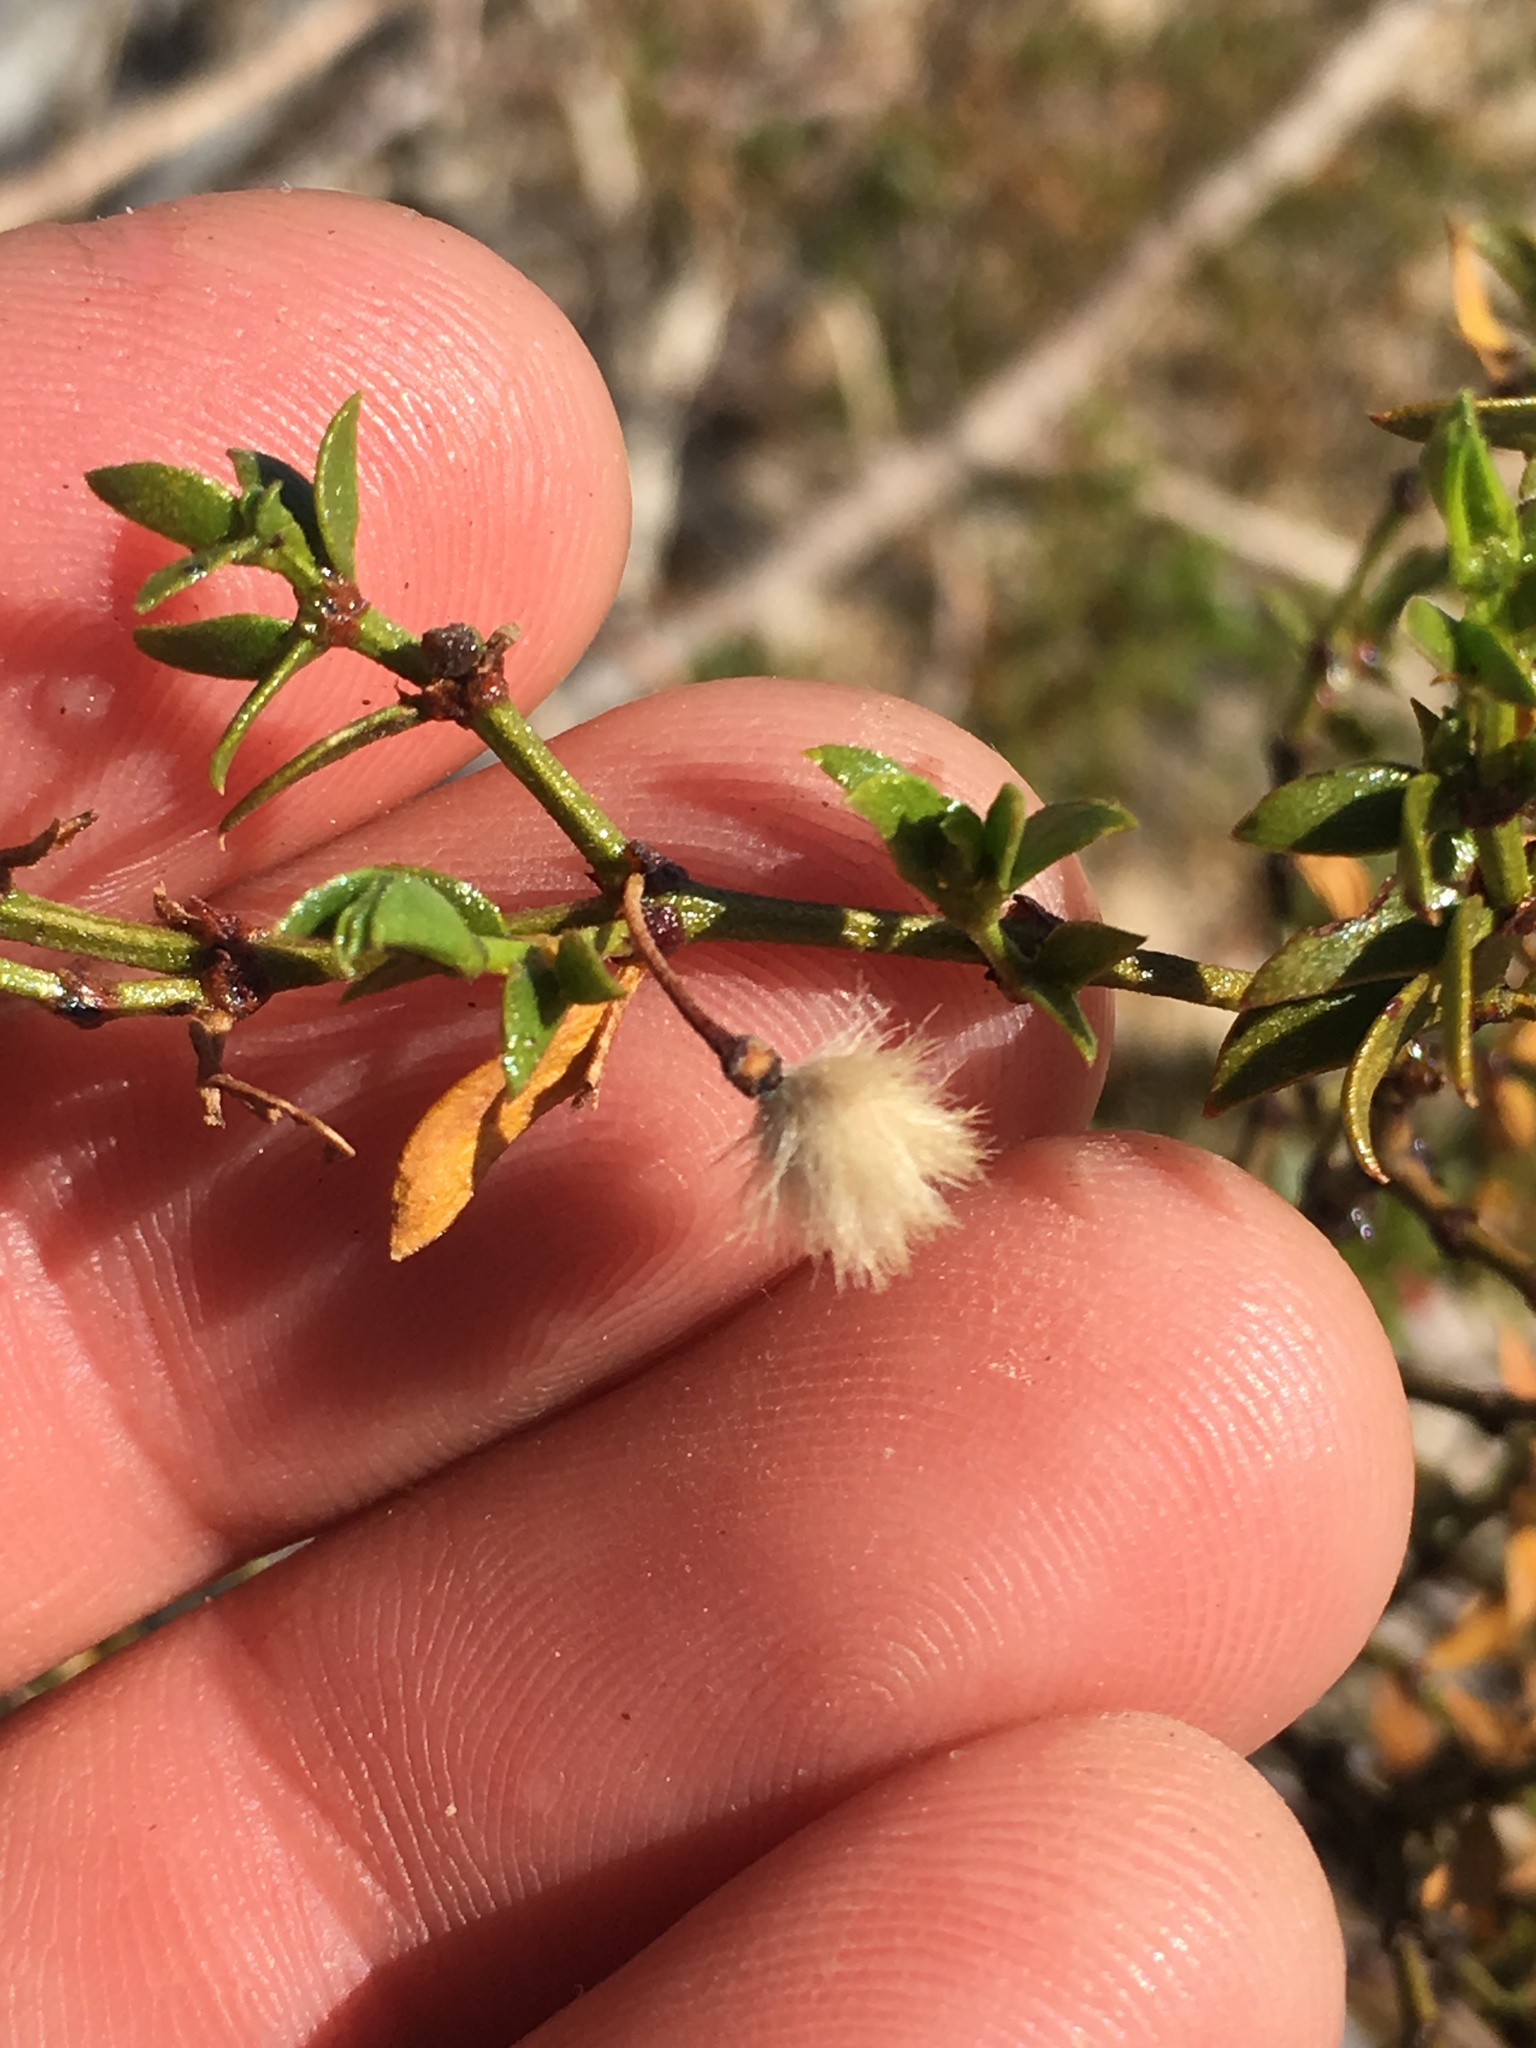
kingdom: Plantae
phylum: Tracheophyta
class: Magnoliopsida
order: Zygophyllales
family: Zygophyllaceae
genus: Larrea
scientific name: Larrea tridentata
